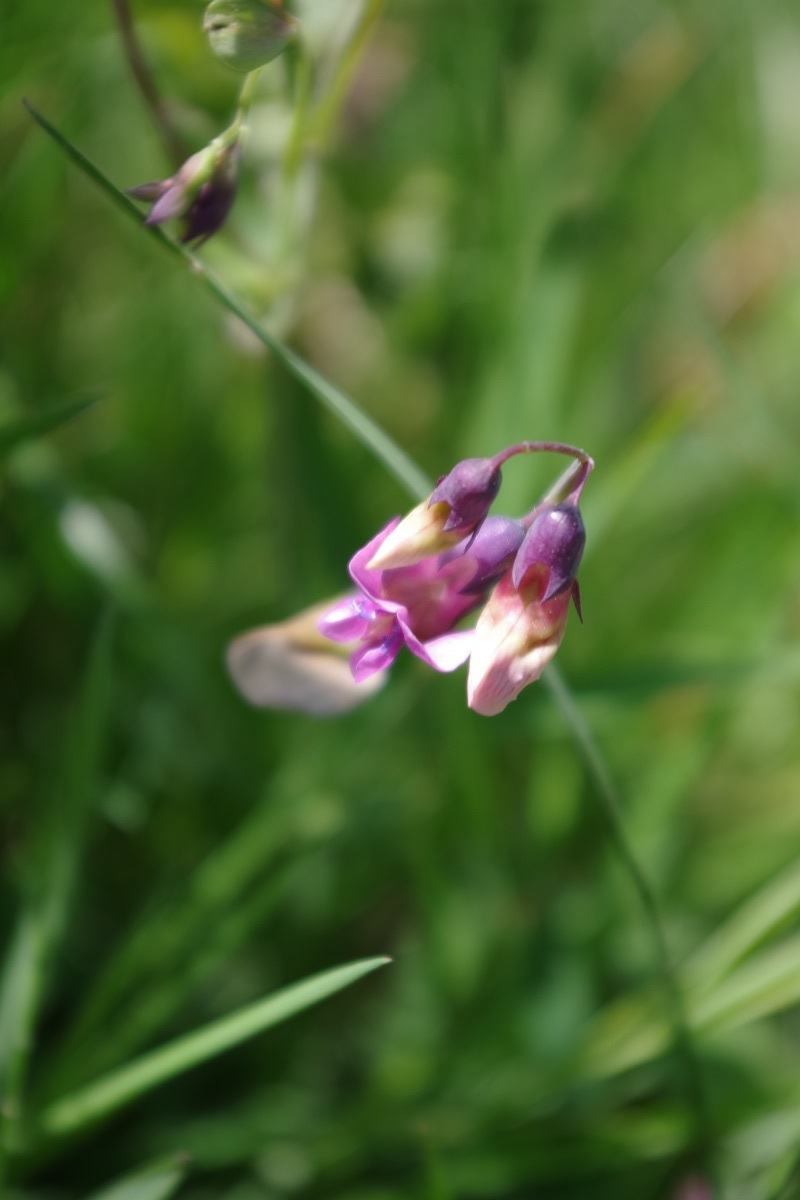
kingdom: Plantae
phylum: Tracheophyta
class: Magnoliopsida
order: Fabales
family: Fabaceae
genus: Lathyrus
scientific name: Lathyrus linifolius
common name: Bitter-vetch
